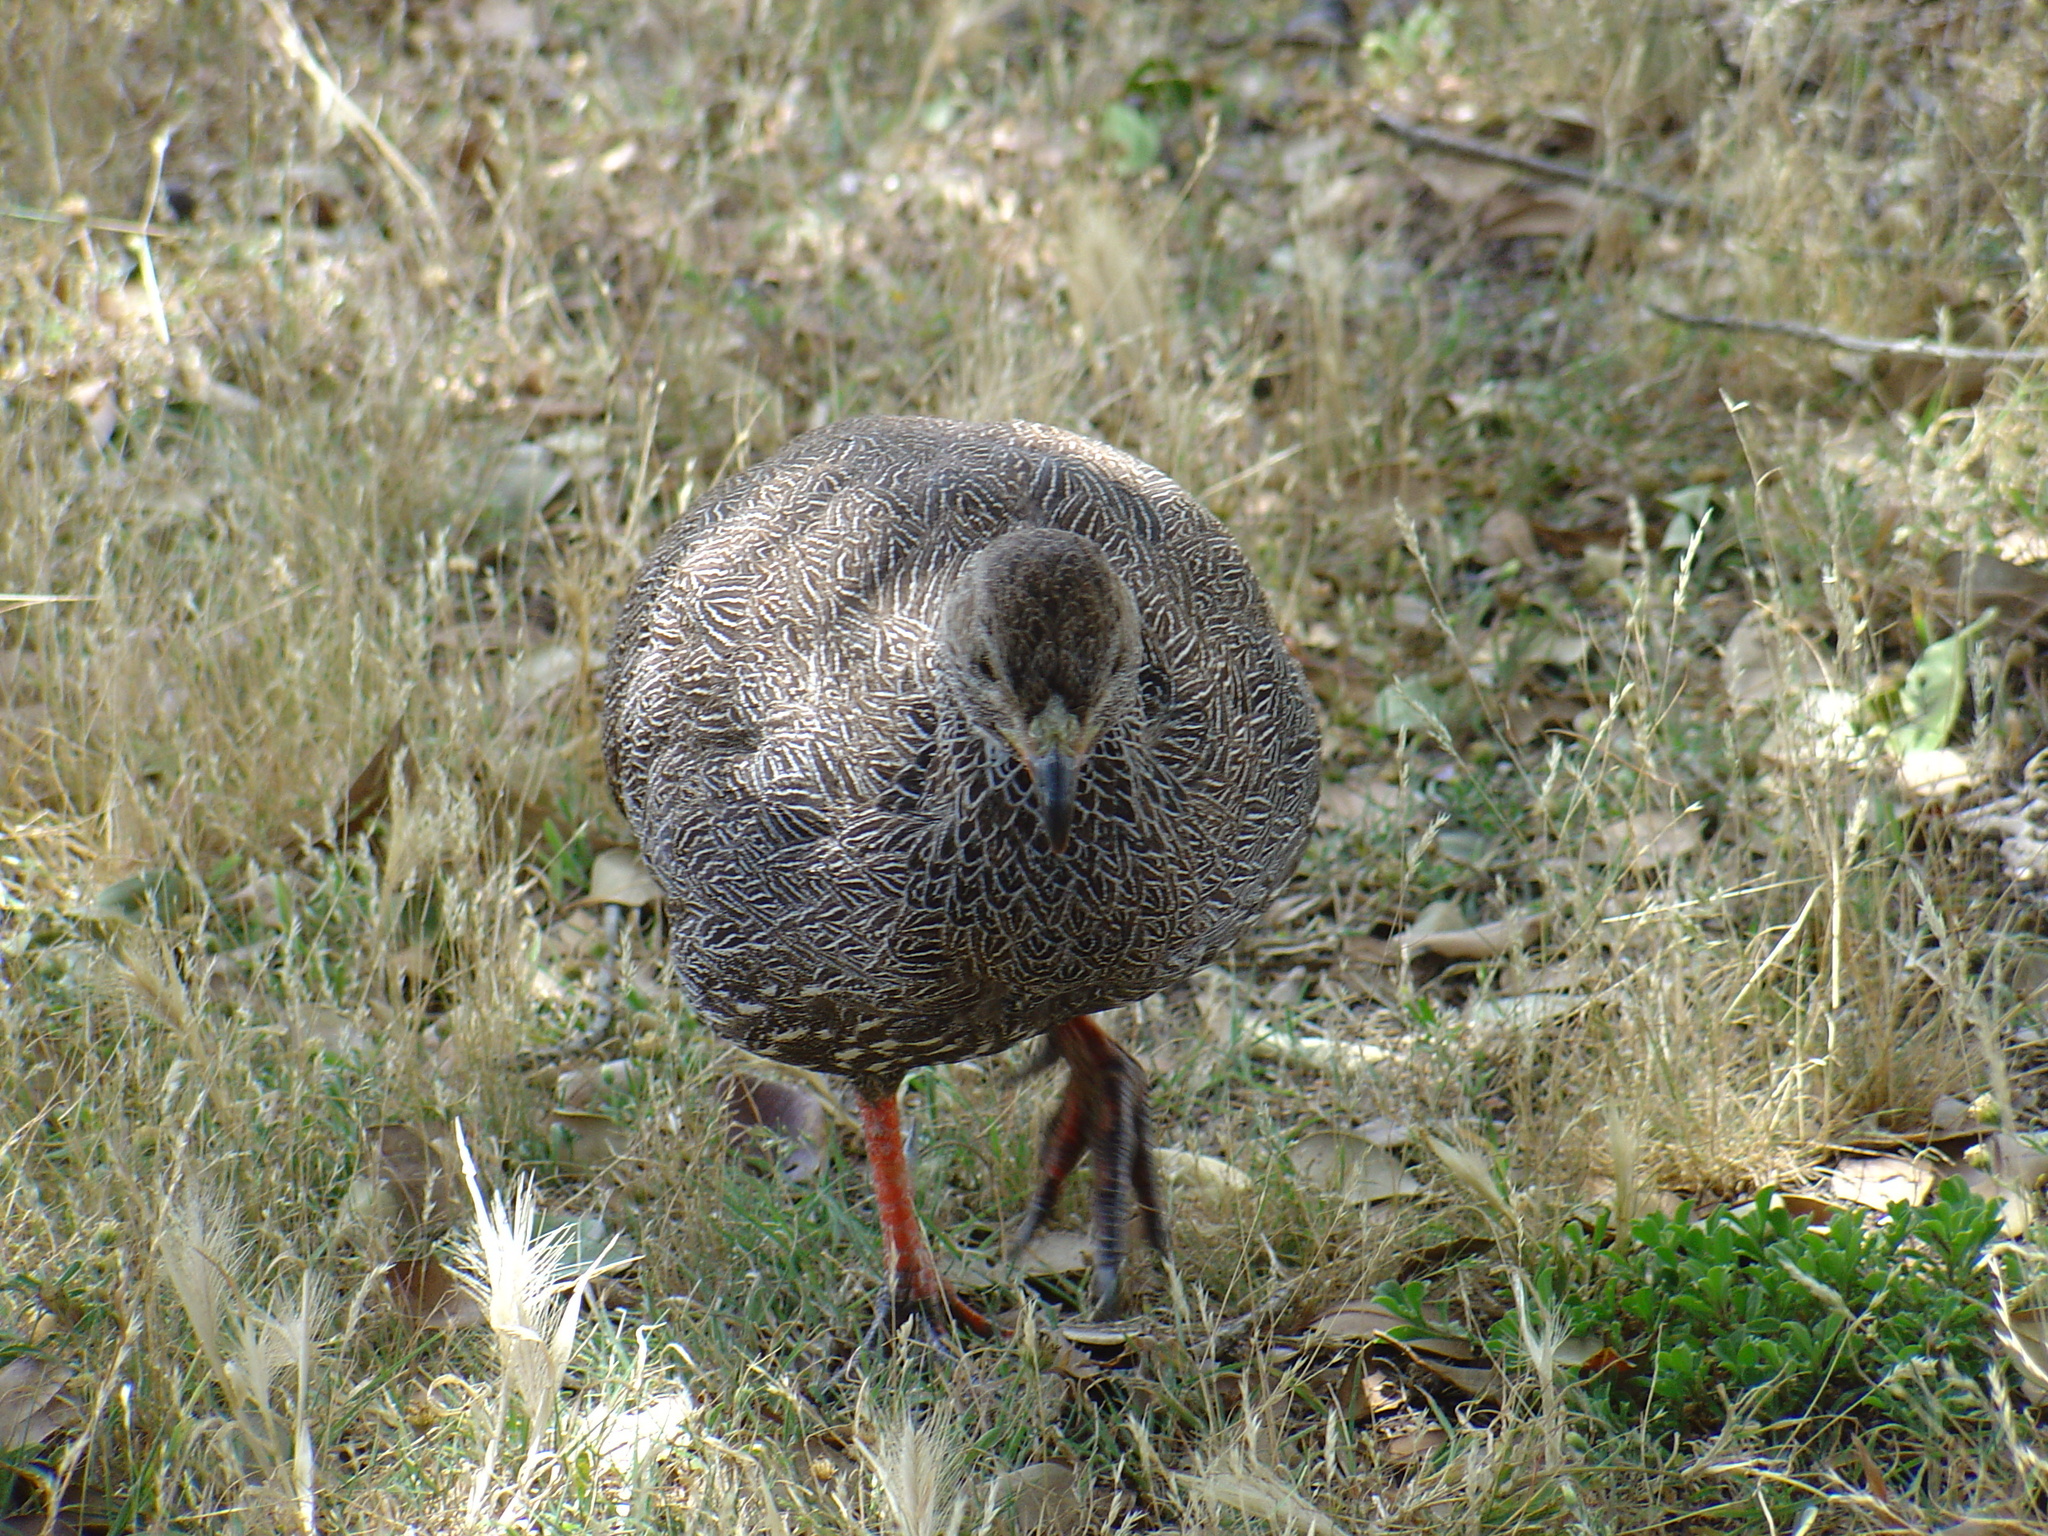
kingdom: Animalia
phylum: Chordata
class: Aves
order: Galliformes
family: Phasianidae
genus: Pternistis
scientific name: Pternistis capensis
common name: Cape spurfowl
